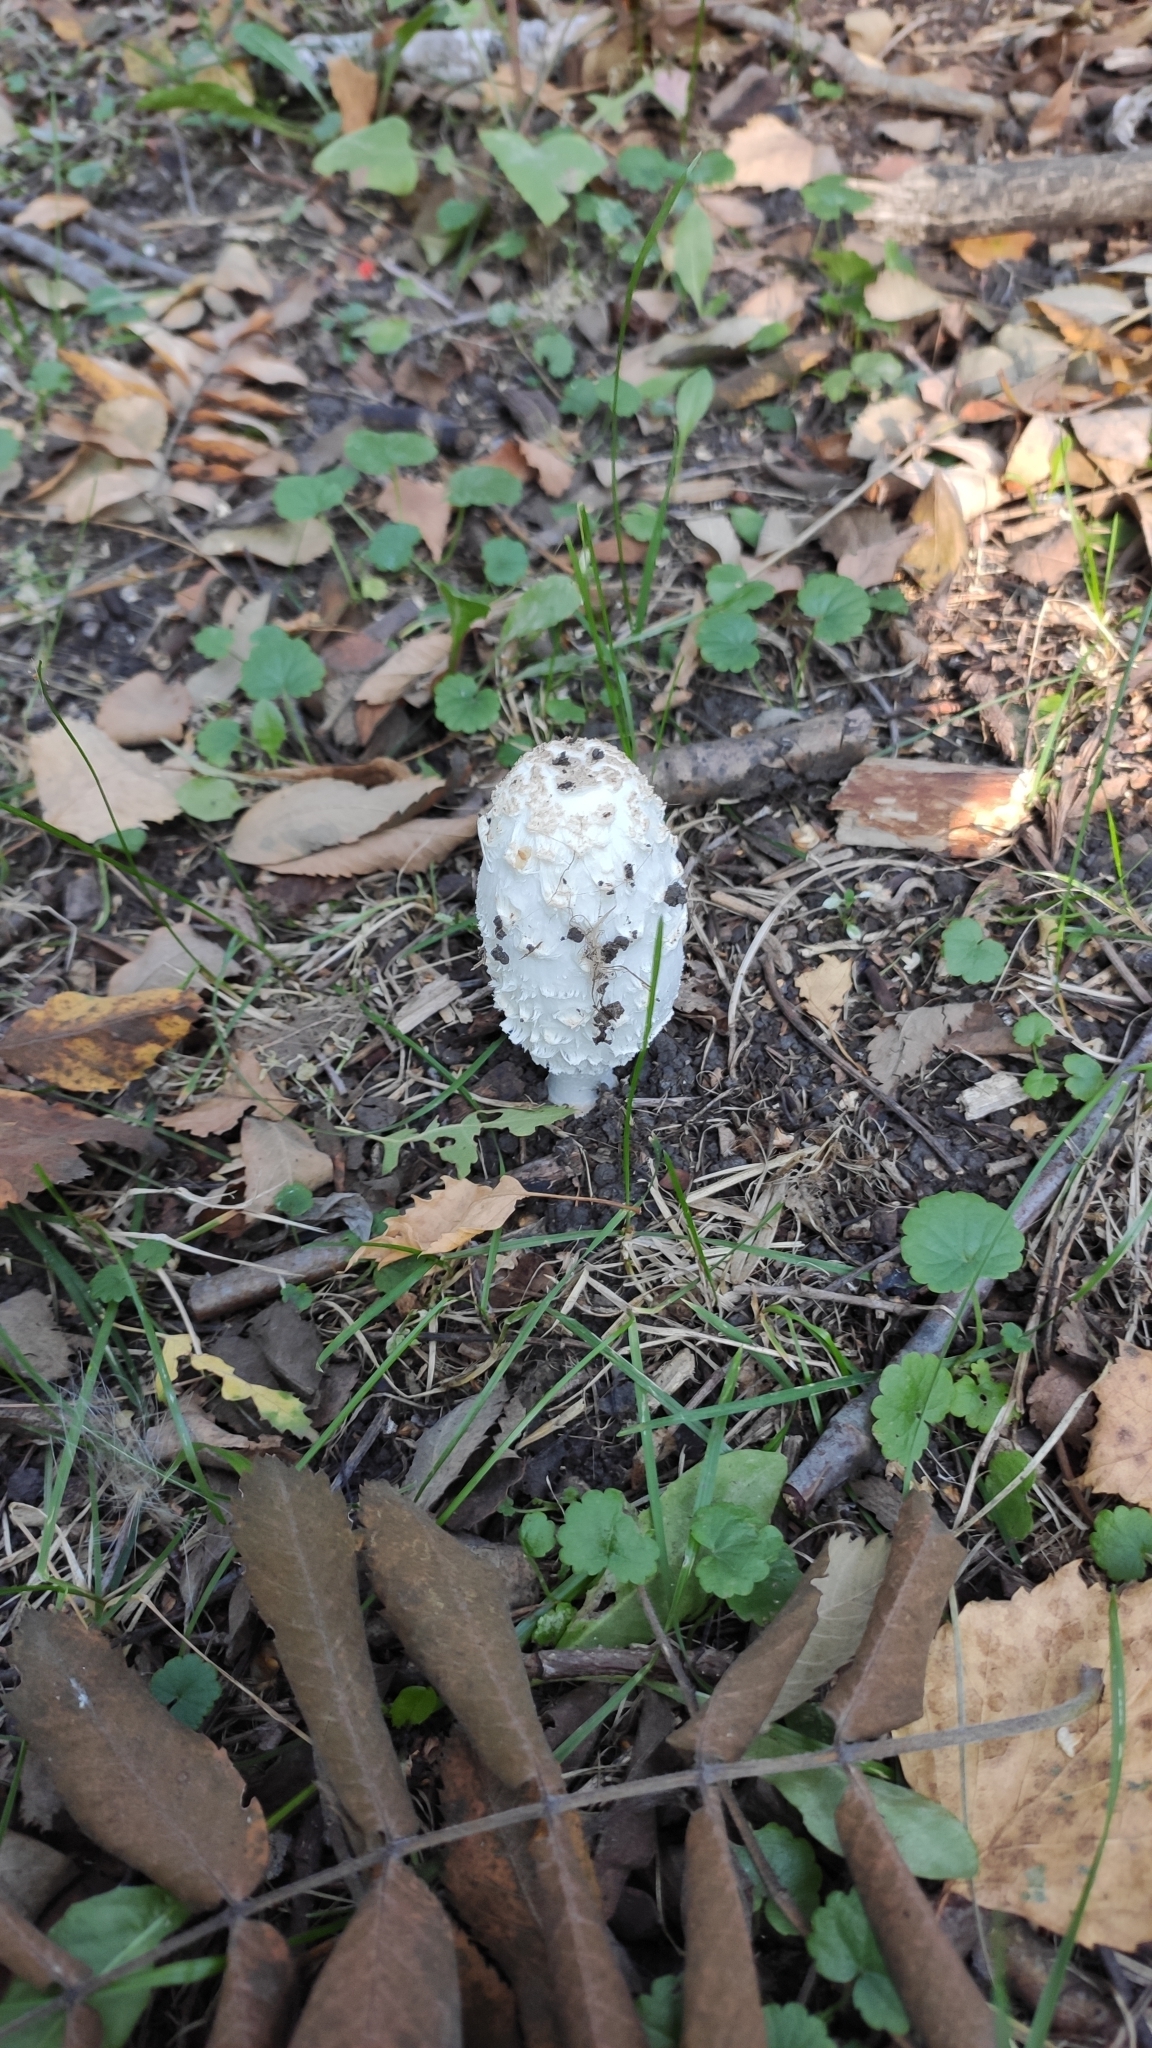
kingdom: Fungi
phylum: Basidiomycota
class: Agaricomycetes
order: Agaricales
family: Agaricaceae
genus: Coprinus
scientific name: Coprinus comatus
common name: Lawyer's wig
